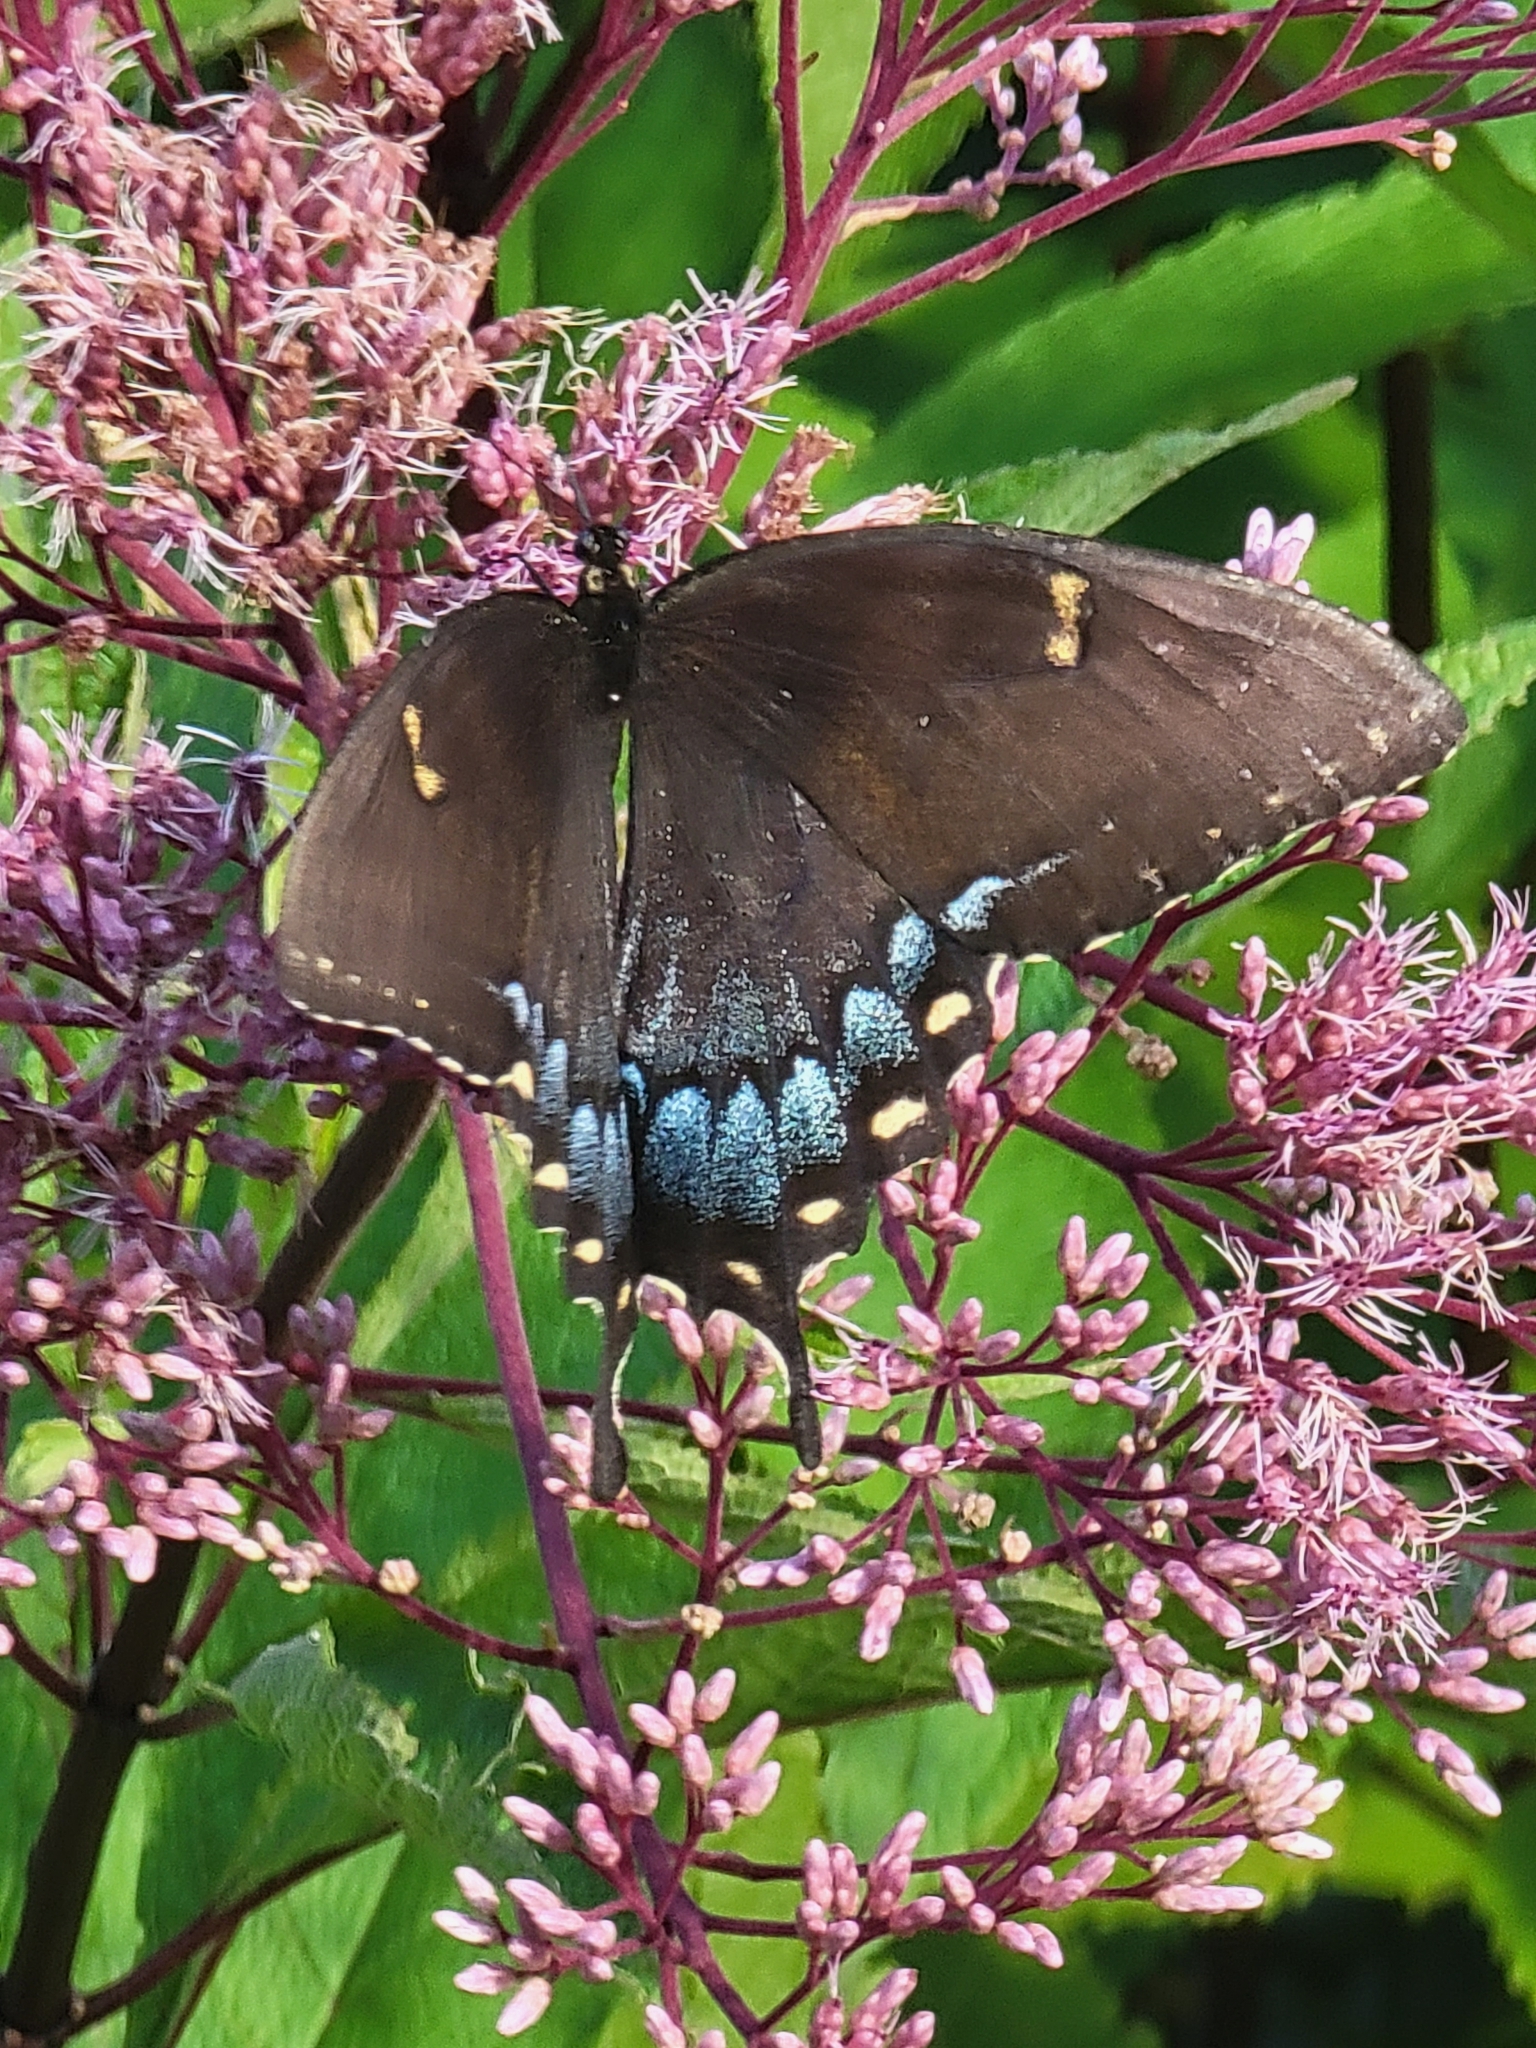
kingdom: Animalia
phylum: Arthropoda
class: Insecta
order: Lepidoptera
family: Papilionidae
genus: Papilio
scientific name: Papilio glaucus
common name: Tiger swallowtail
